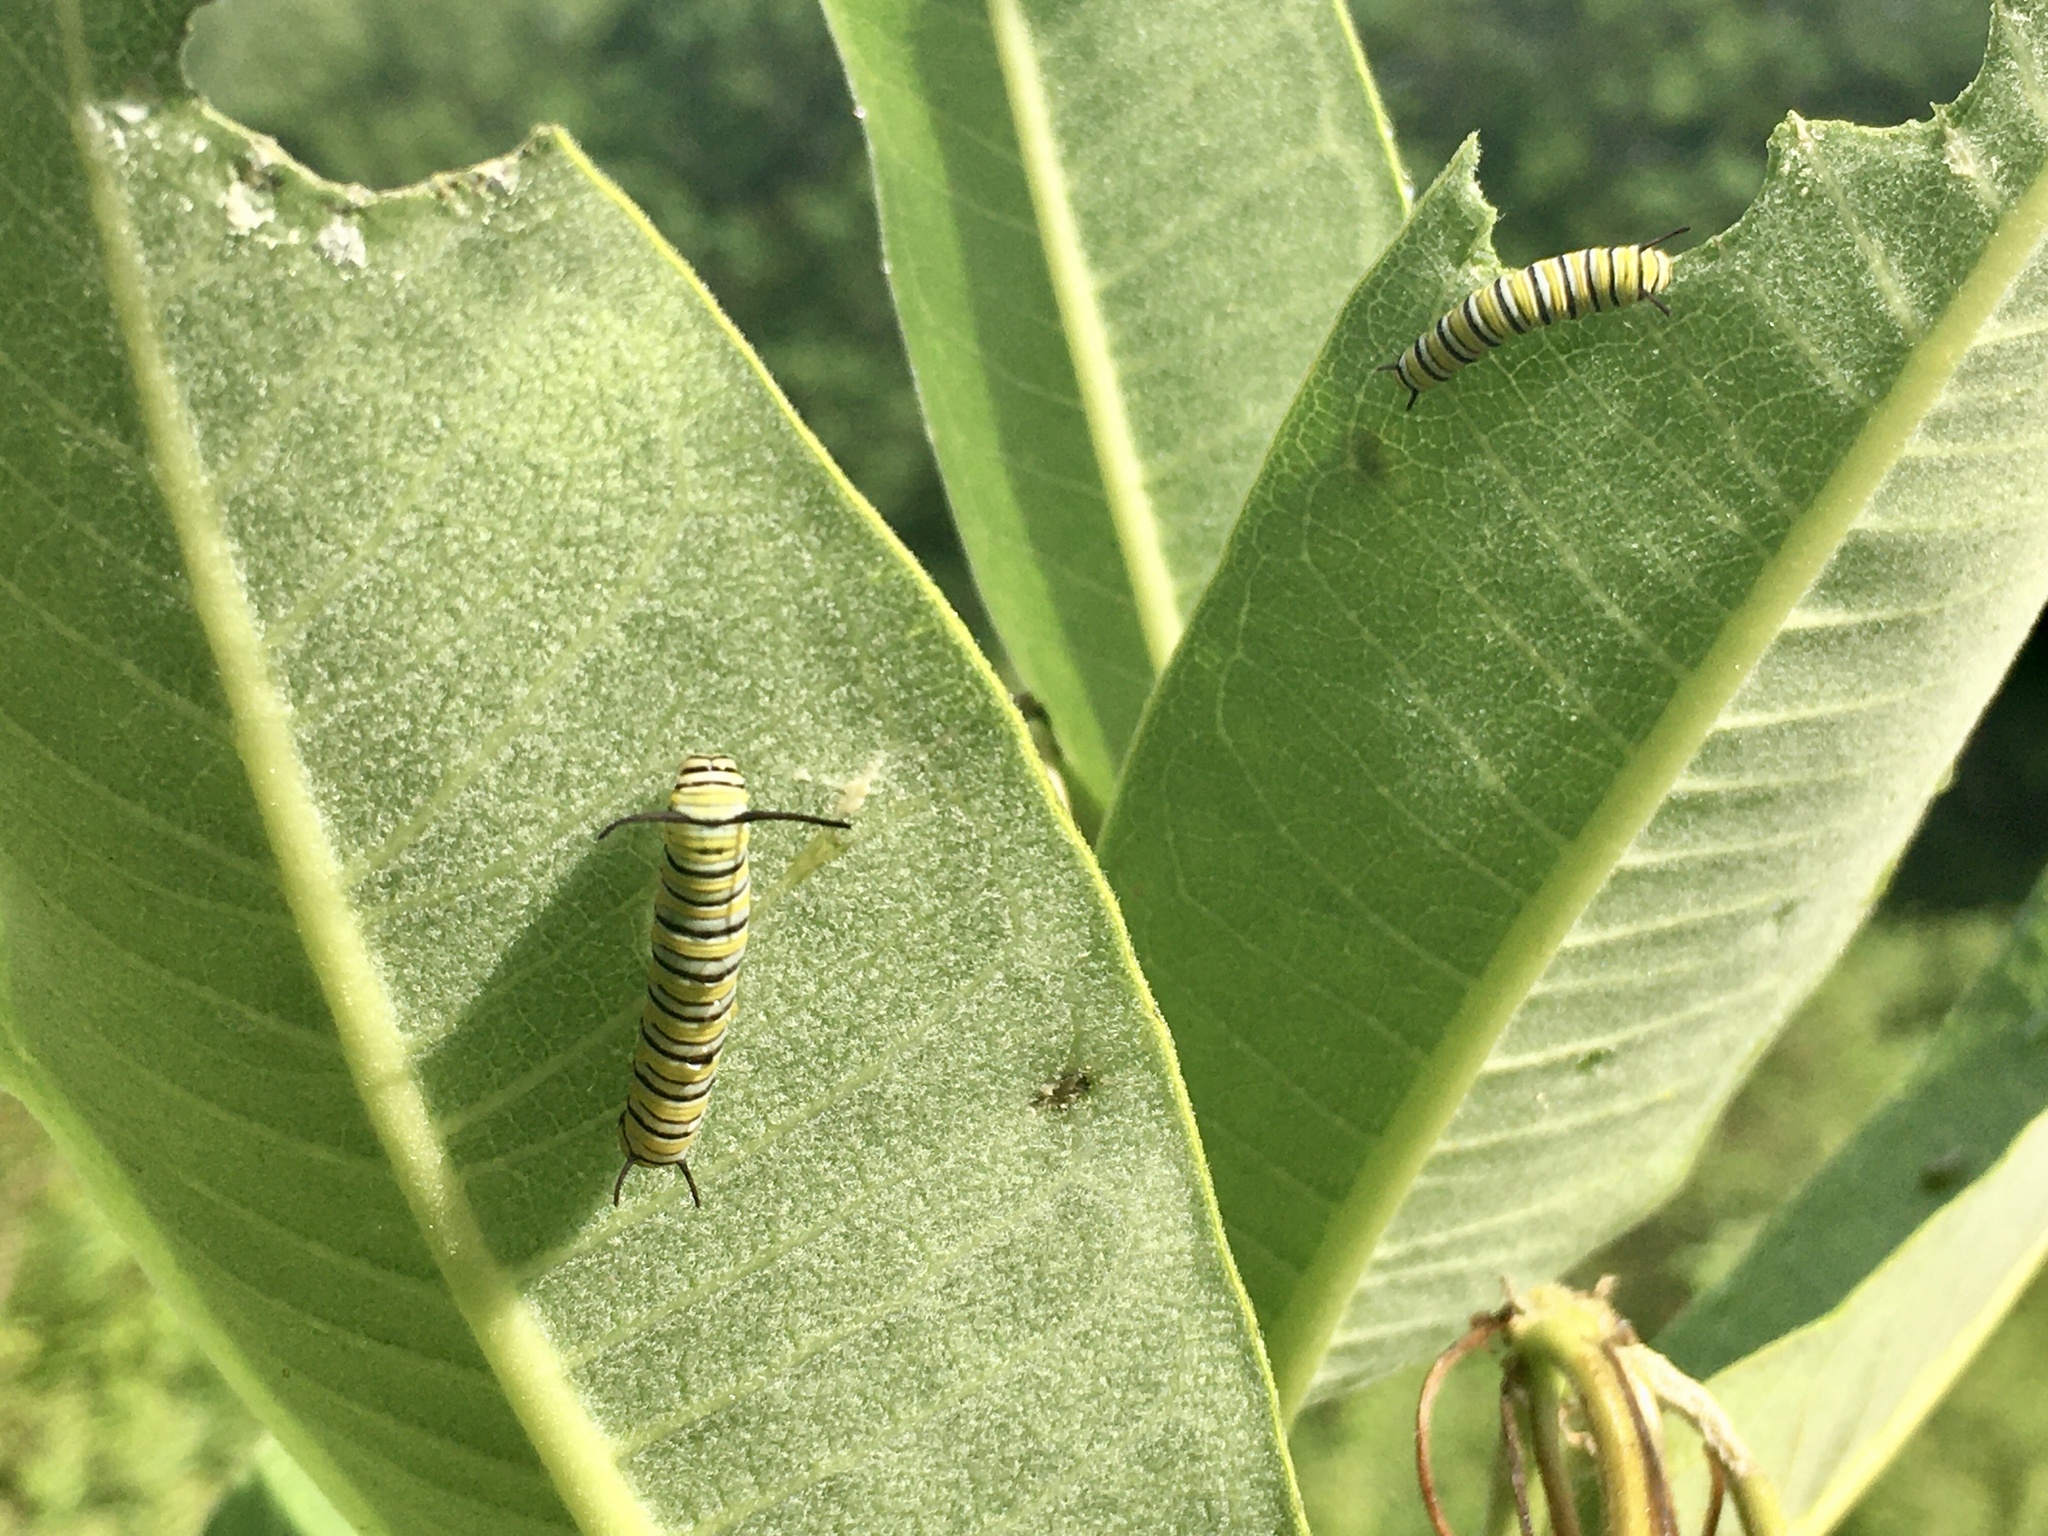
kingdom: Animalia
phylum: Arthropoda
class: Insecta
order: Lepidoptera
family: Nymphalidae
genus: Danaus
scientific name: Danaus plexippus
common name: Monarch
